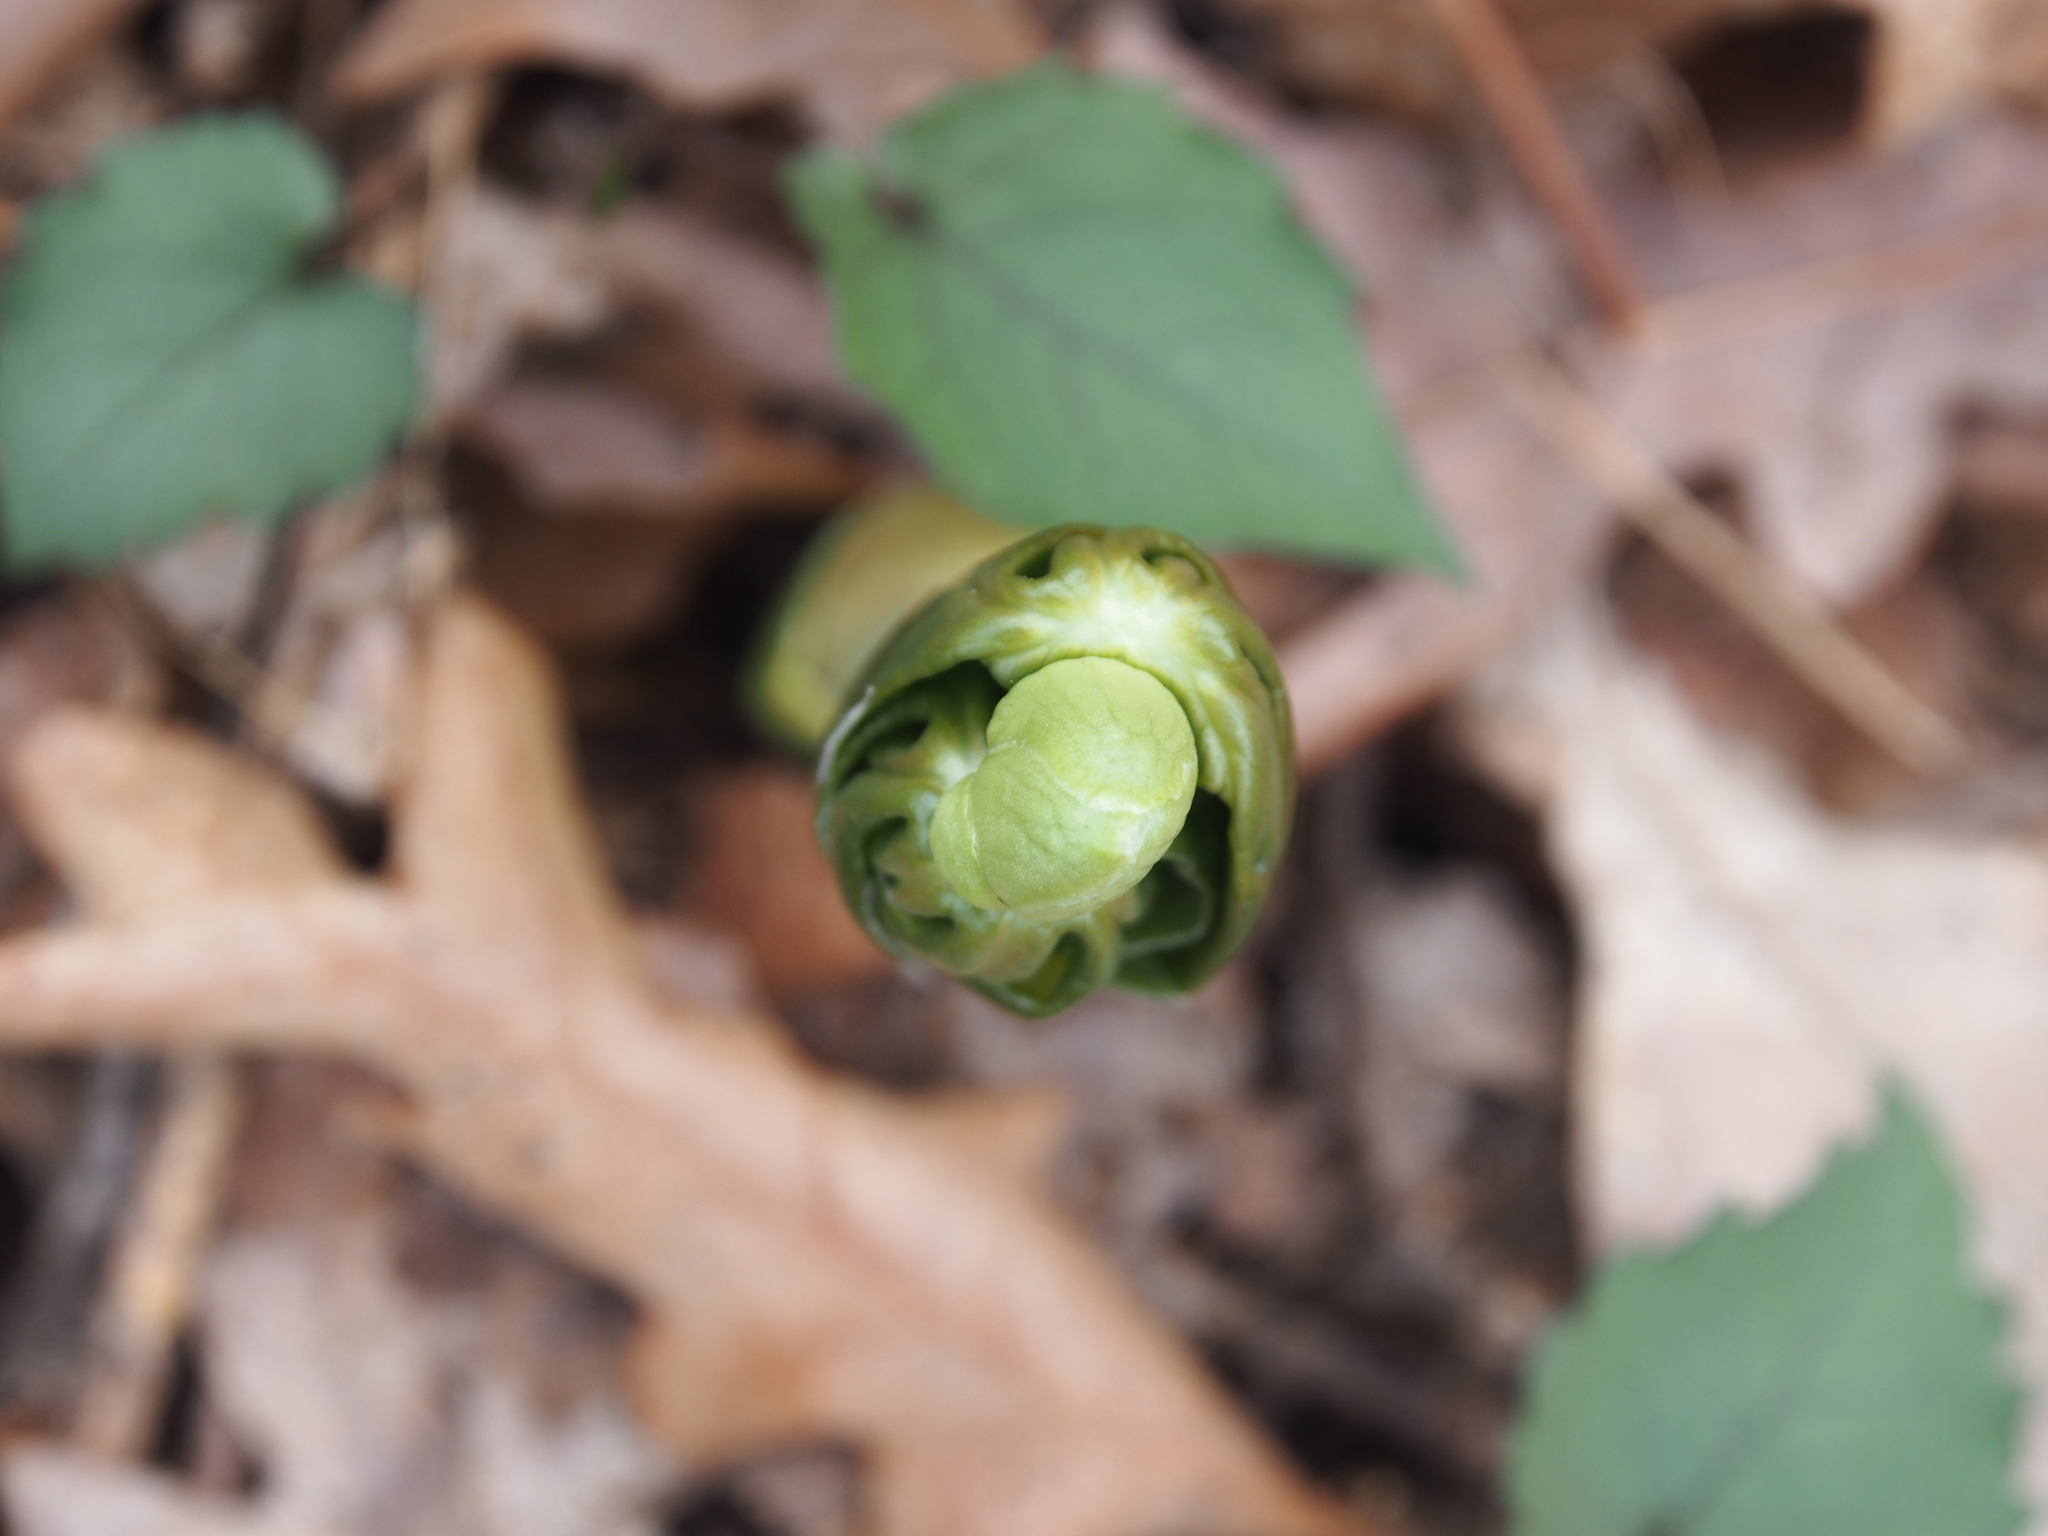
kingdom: Plantae
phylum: Tracheophyta
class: Magnoliopsida
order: Ranunculales
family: Berberidaceae
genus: Podophyllum
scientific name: Podophyllum peltatum
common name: Wild mandrake
